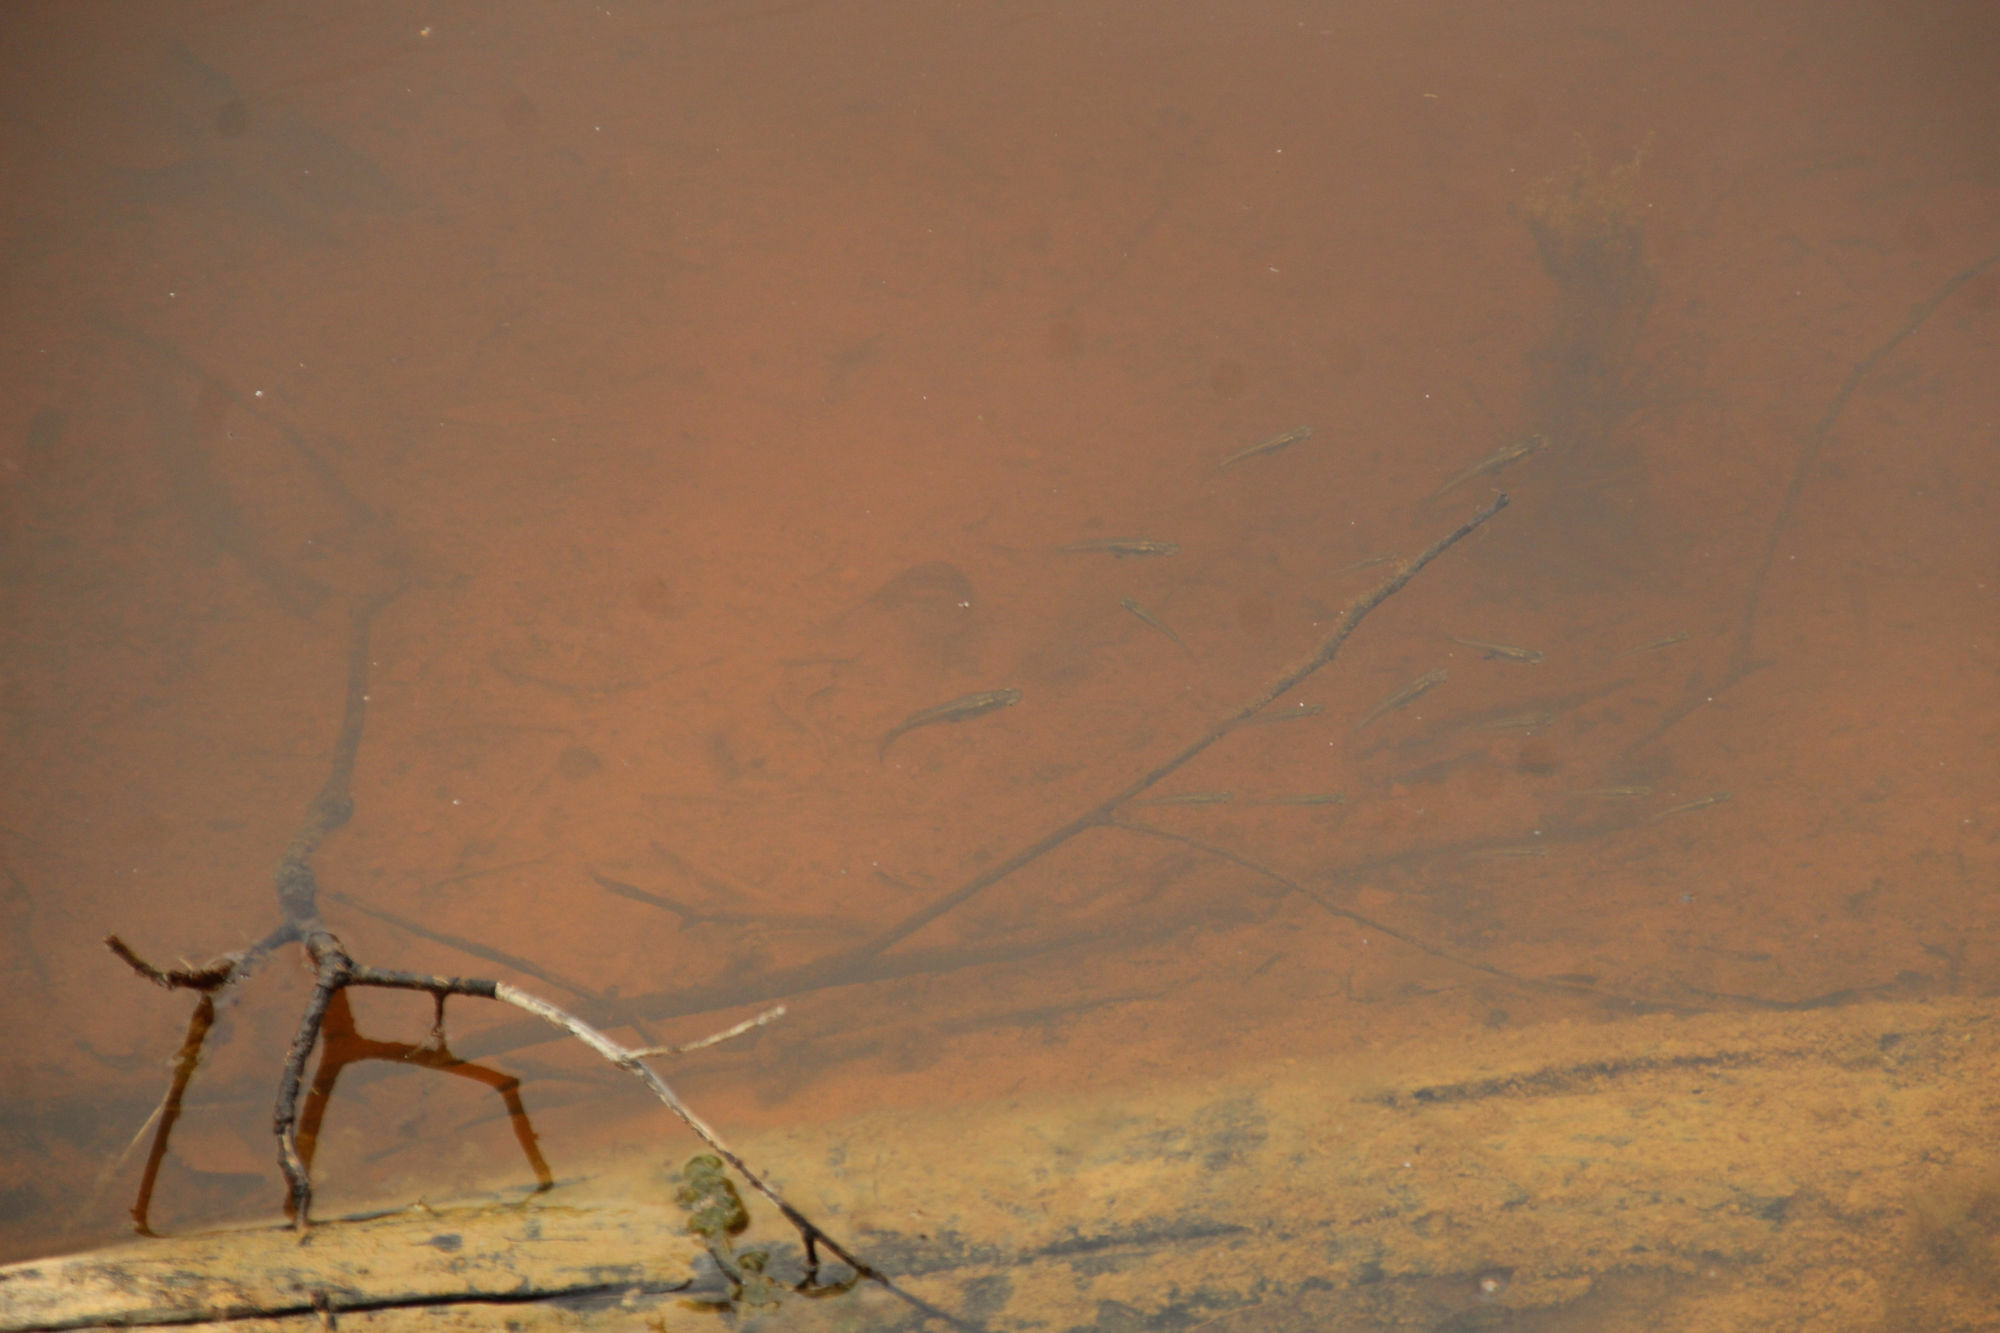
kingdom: Animalia
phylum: Chordata
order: Cyprinodontiformes
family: Poeciliidae
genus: Gambusia
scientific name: Gambusia holbrooki
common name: Eastern mosquitofish
